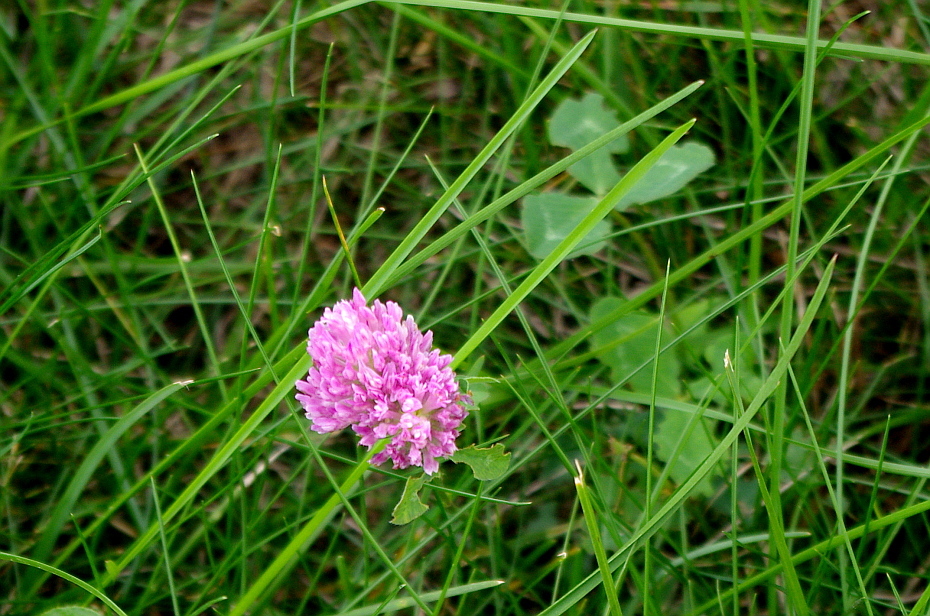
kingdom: Plantae
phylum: Tracheophyta
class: Magnoliopsida
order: Fabales
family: Fabaceae
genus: Trifolium
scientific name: Trifolium pratense
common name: Red clover
